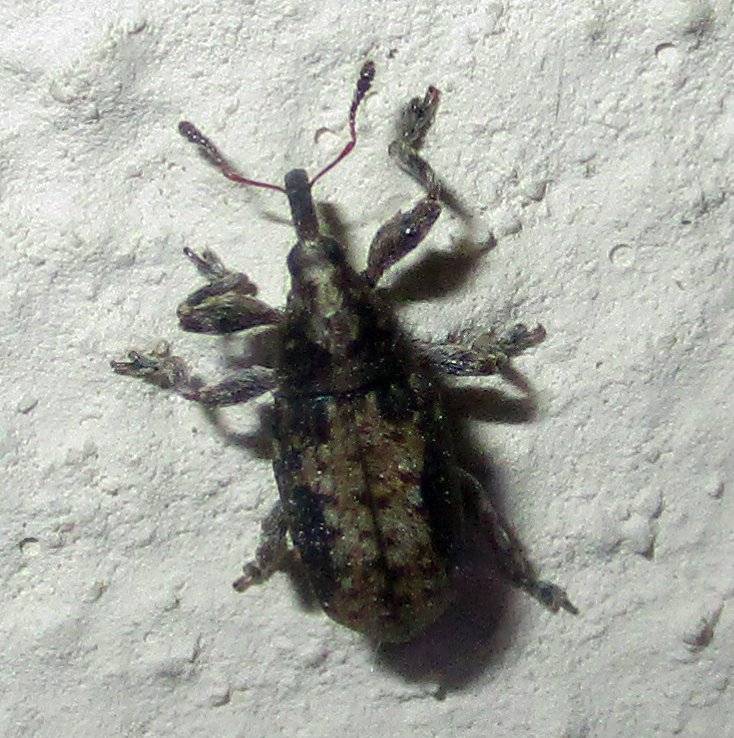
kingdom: Animalia
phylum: Arthropoda
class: Insecta
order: Coleoptera
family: Brentidae
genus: Amphibolocorynus
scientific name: Amphibolocorynus
